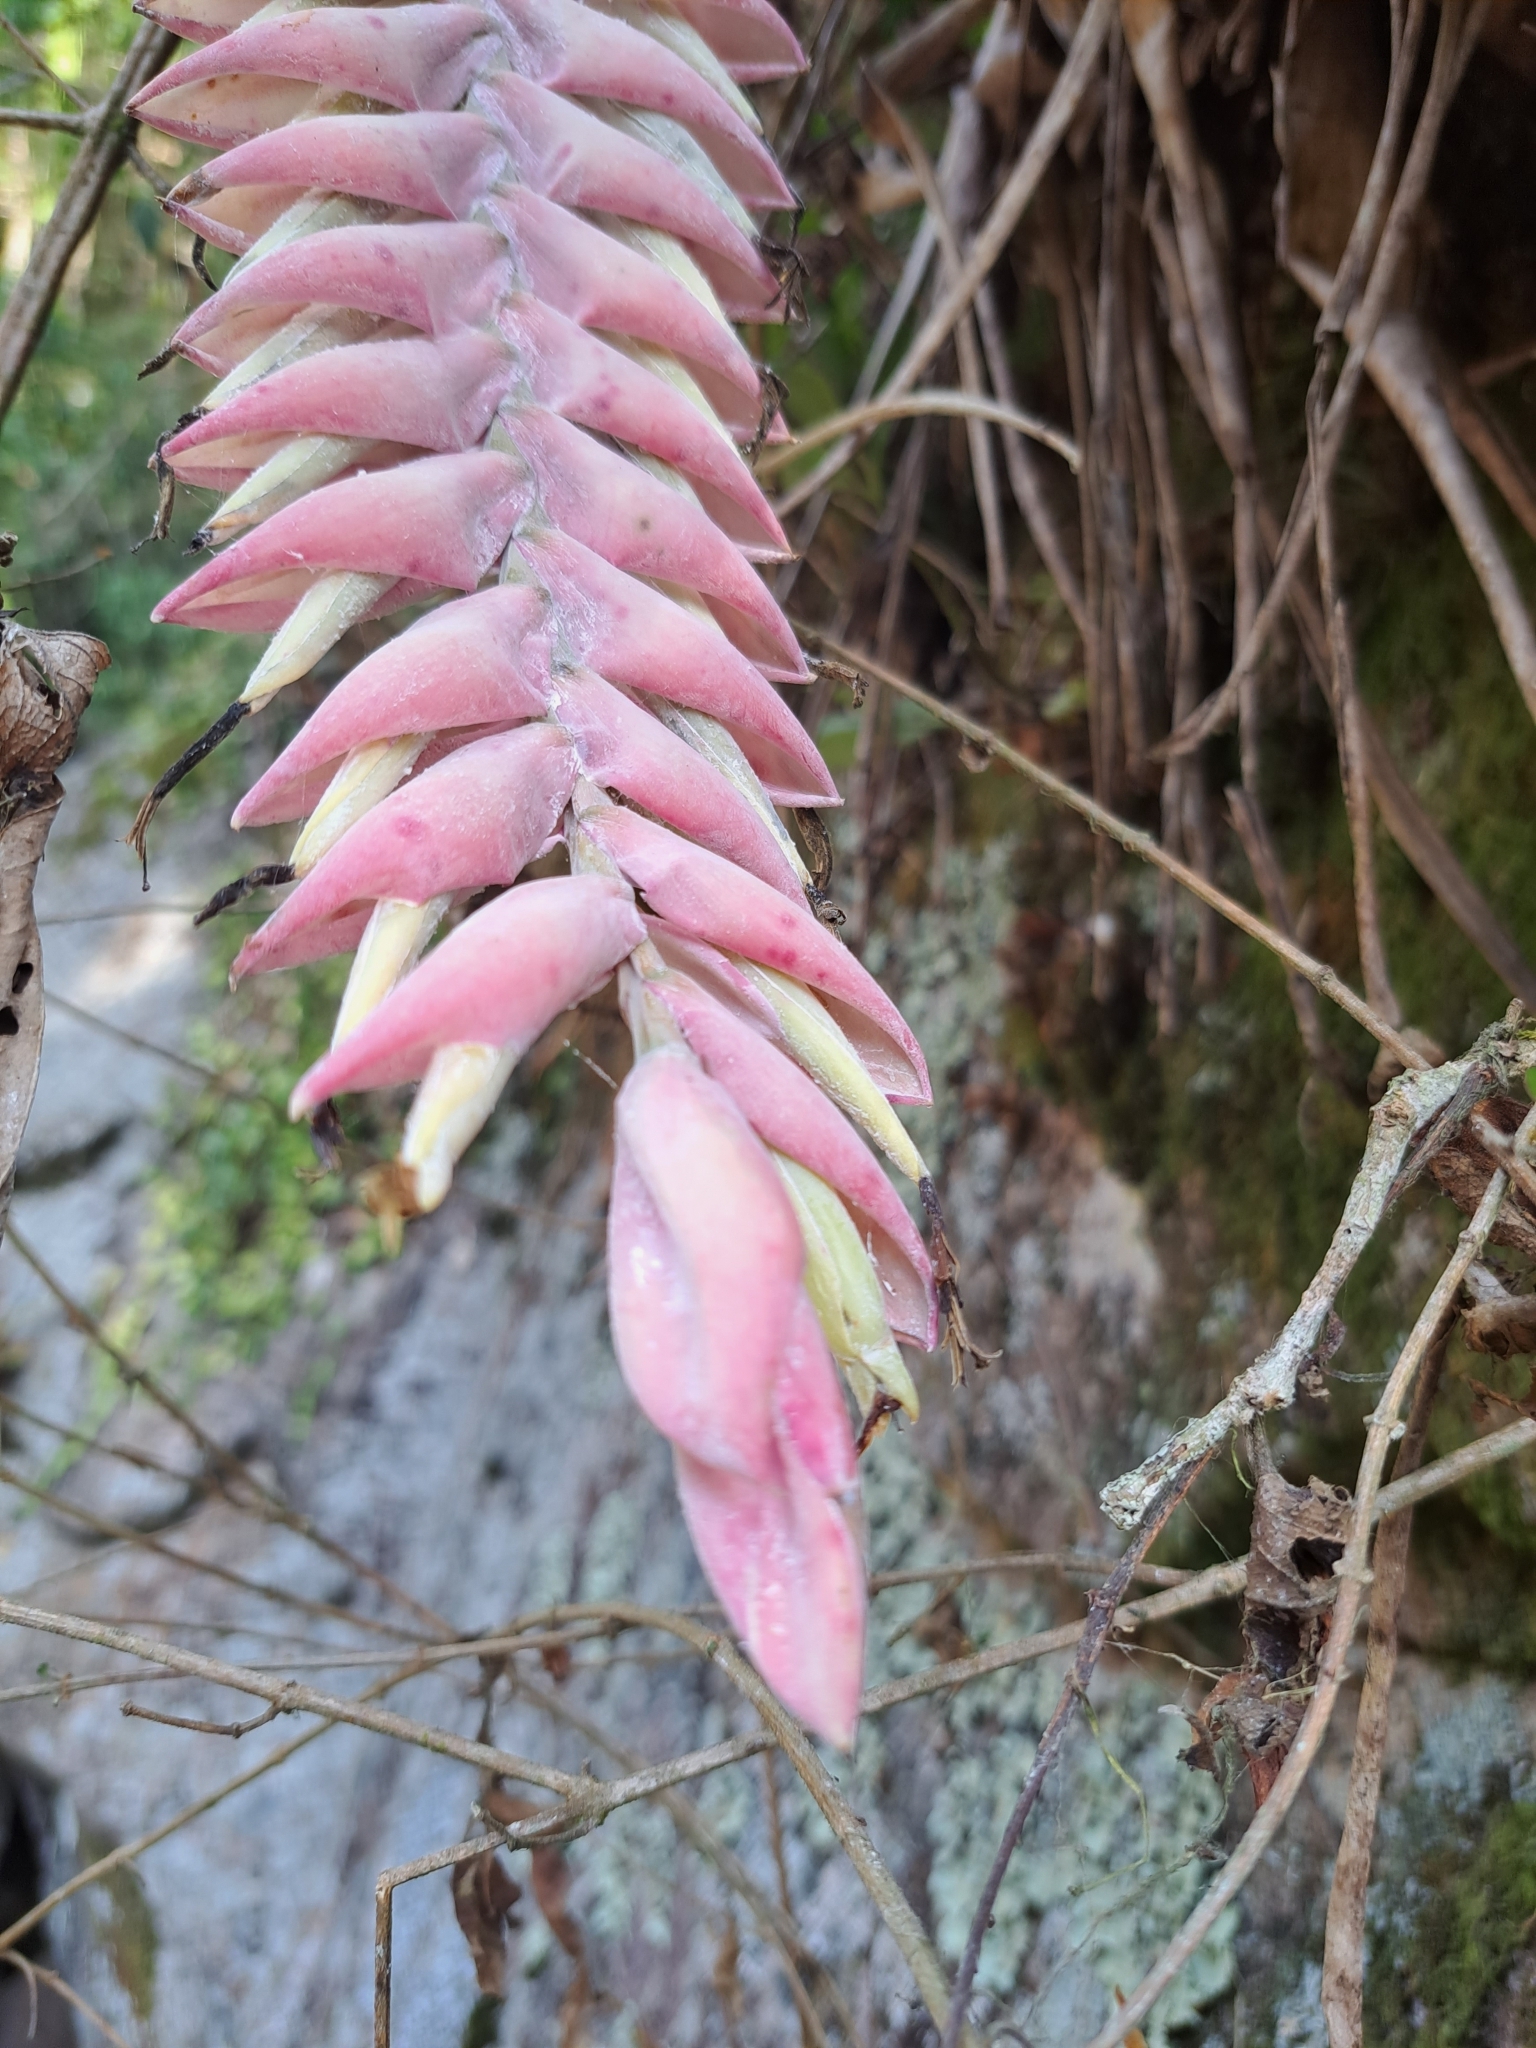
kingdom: Plantae
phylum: Tracheophyta
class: Liliopsida
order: Poales
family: Bromeliaceae
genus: Vriesea
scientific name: Vriesea guttata
